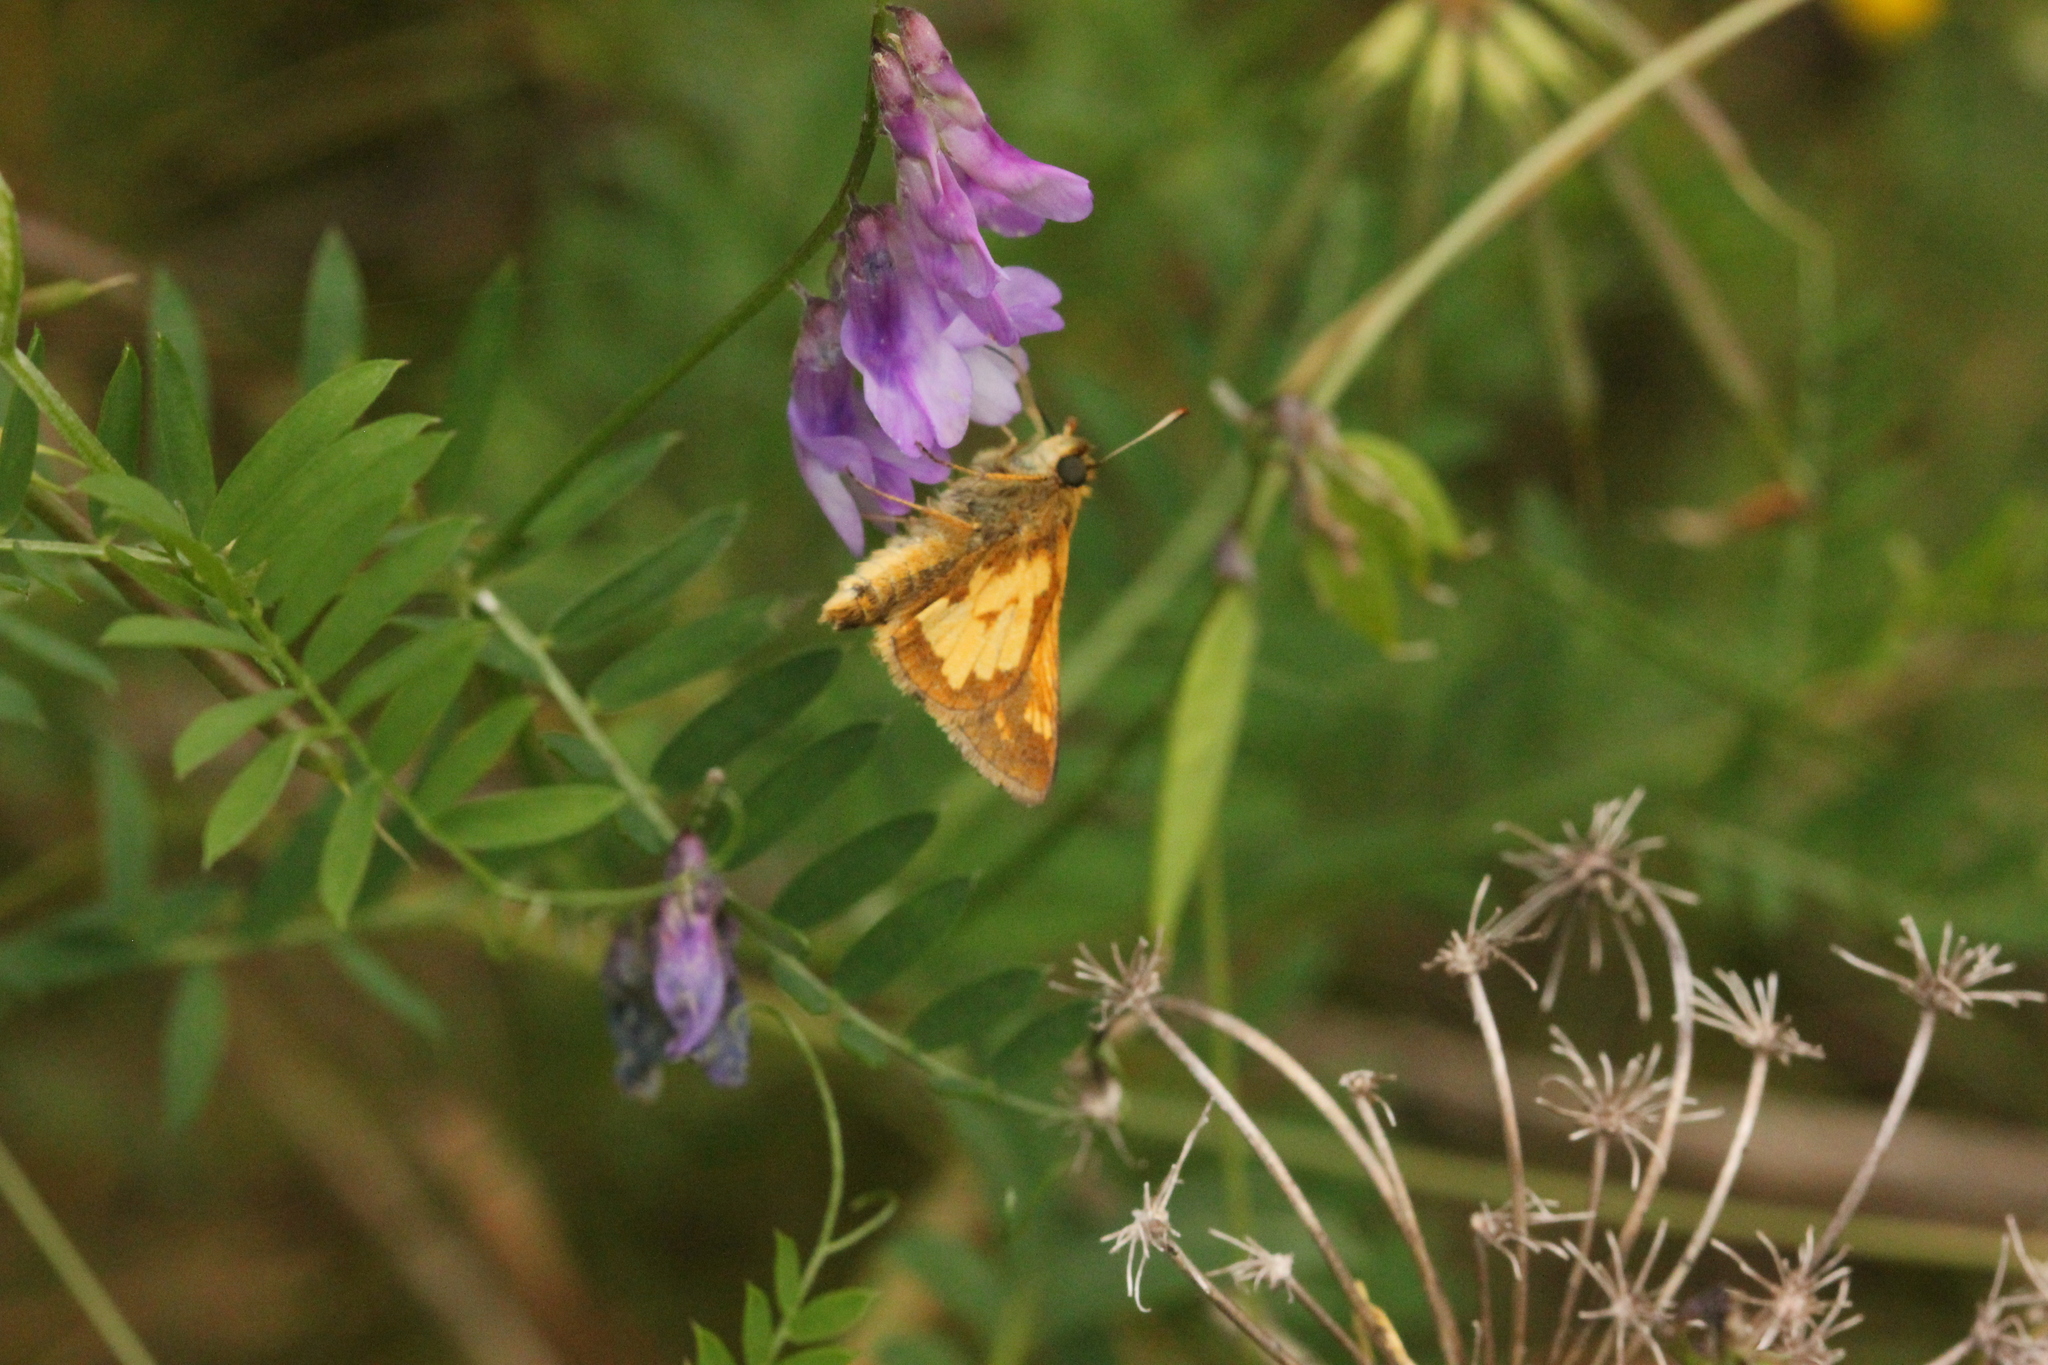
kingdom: Animalia
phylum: Arthropoda
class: Insecta
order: Lepidoptera
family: Hesperiidae
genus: Polites
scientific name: Polites coras
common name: Peck's skipper
